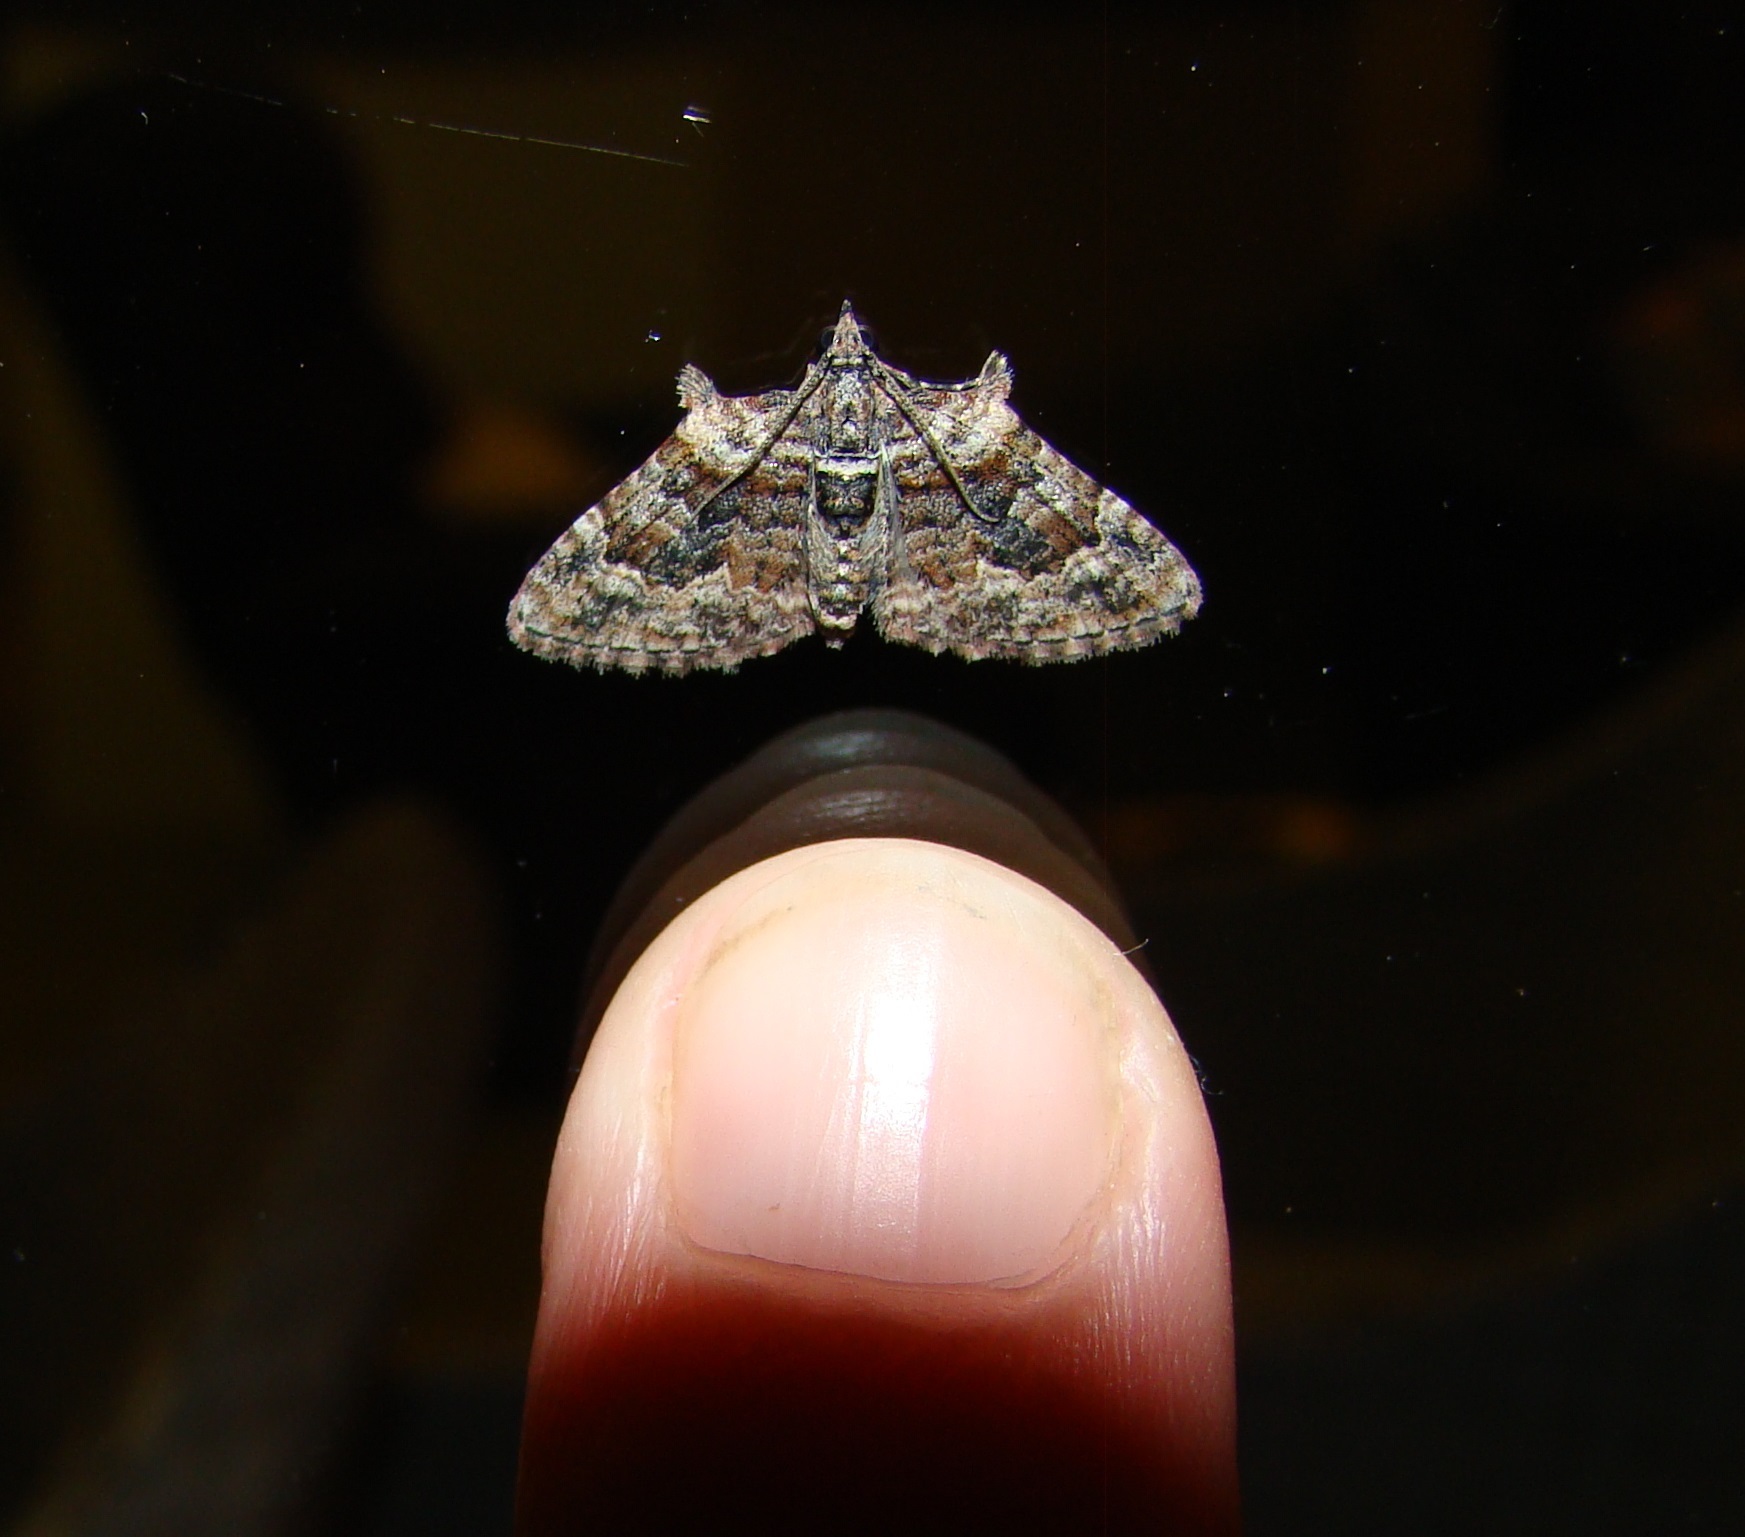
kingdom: Animalia
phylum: Arthropoda
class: Insecta
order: Lepidoptera
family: Geometridae
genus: Phrissogonus
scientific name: Phrissogonus laticostata
